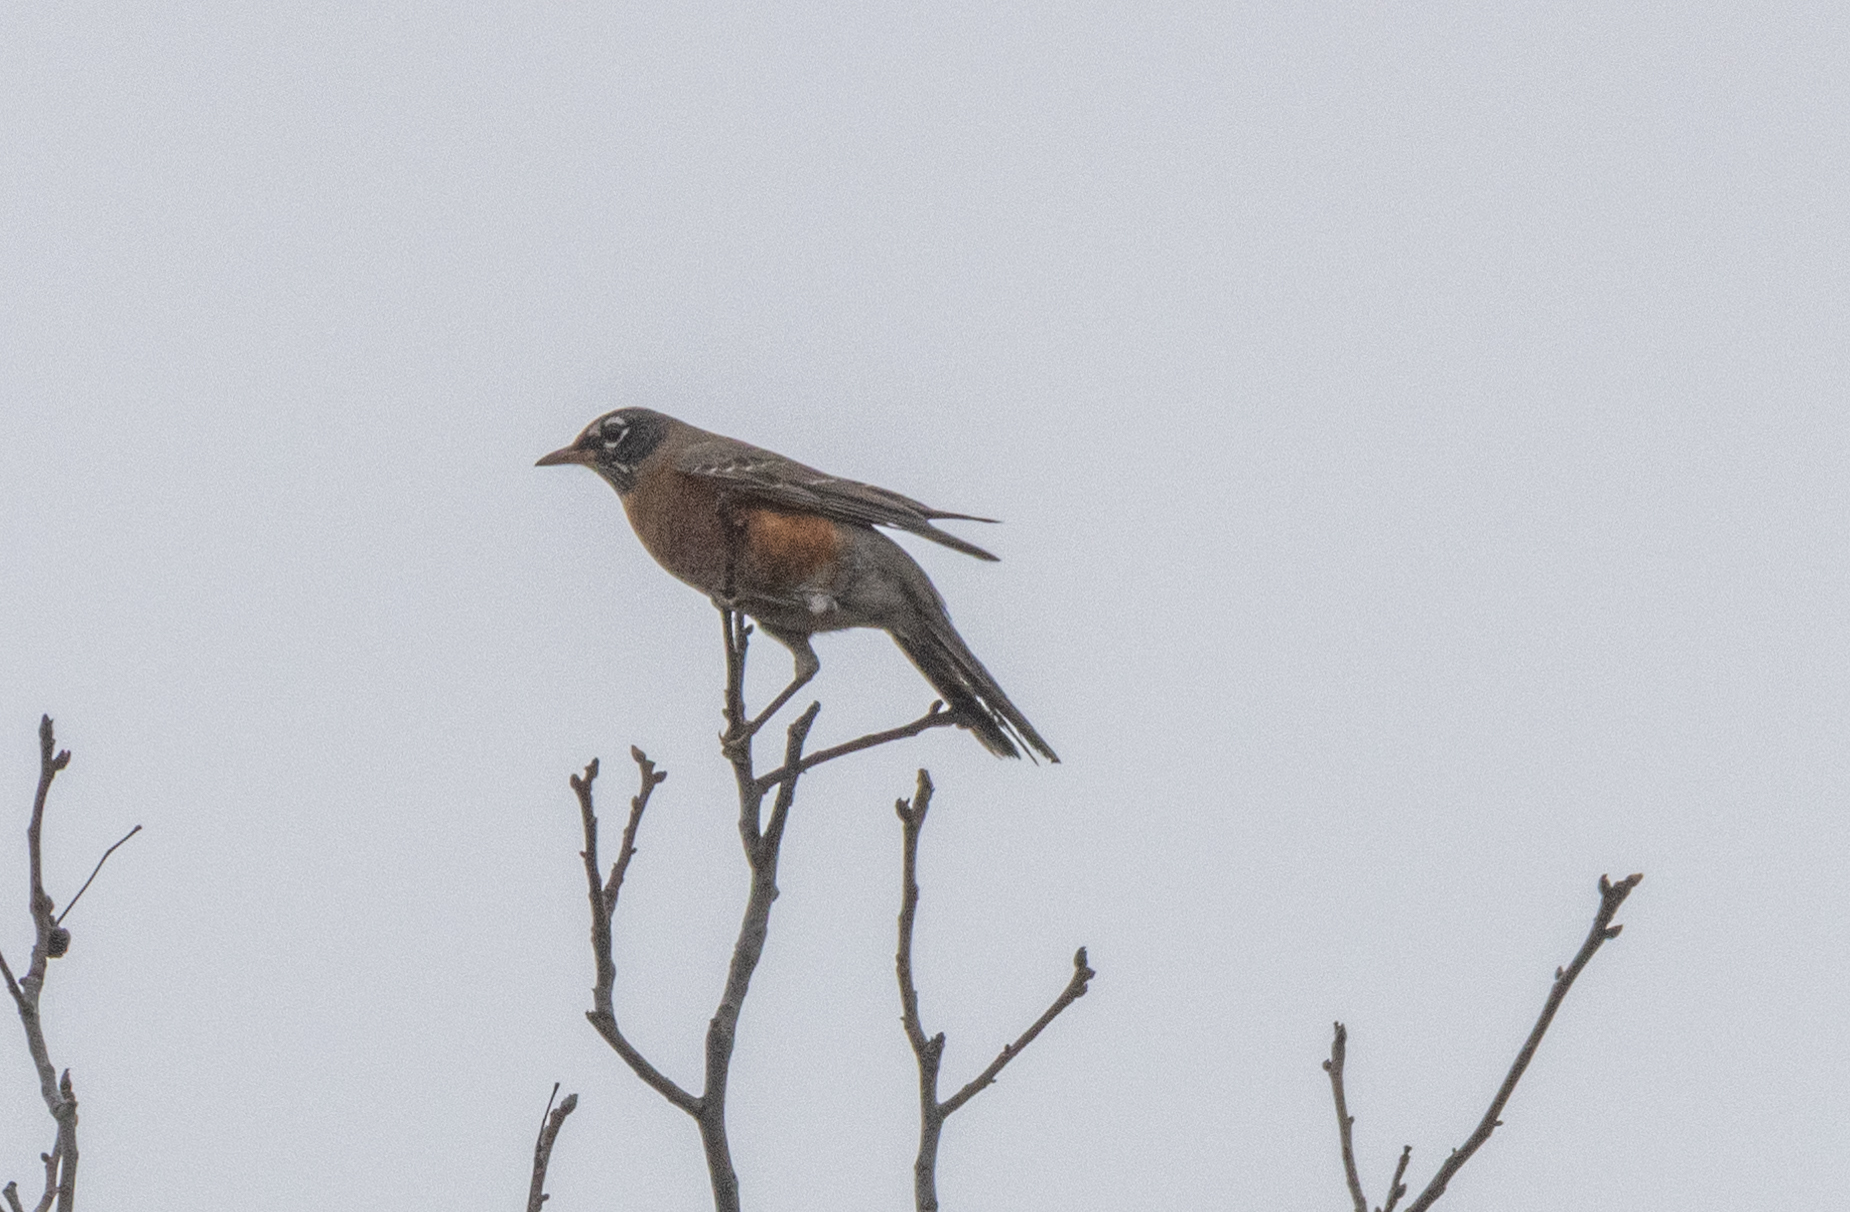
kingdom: Animalia
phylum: Chordata
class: Aves
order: Passeriformes
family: Turdidae
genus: Turdus
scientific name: Turdus migratorius
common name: American robin
